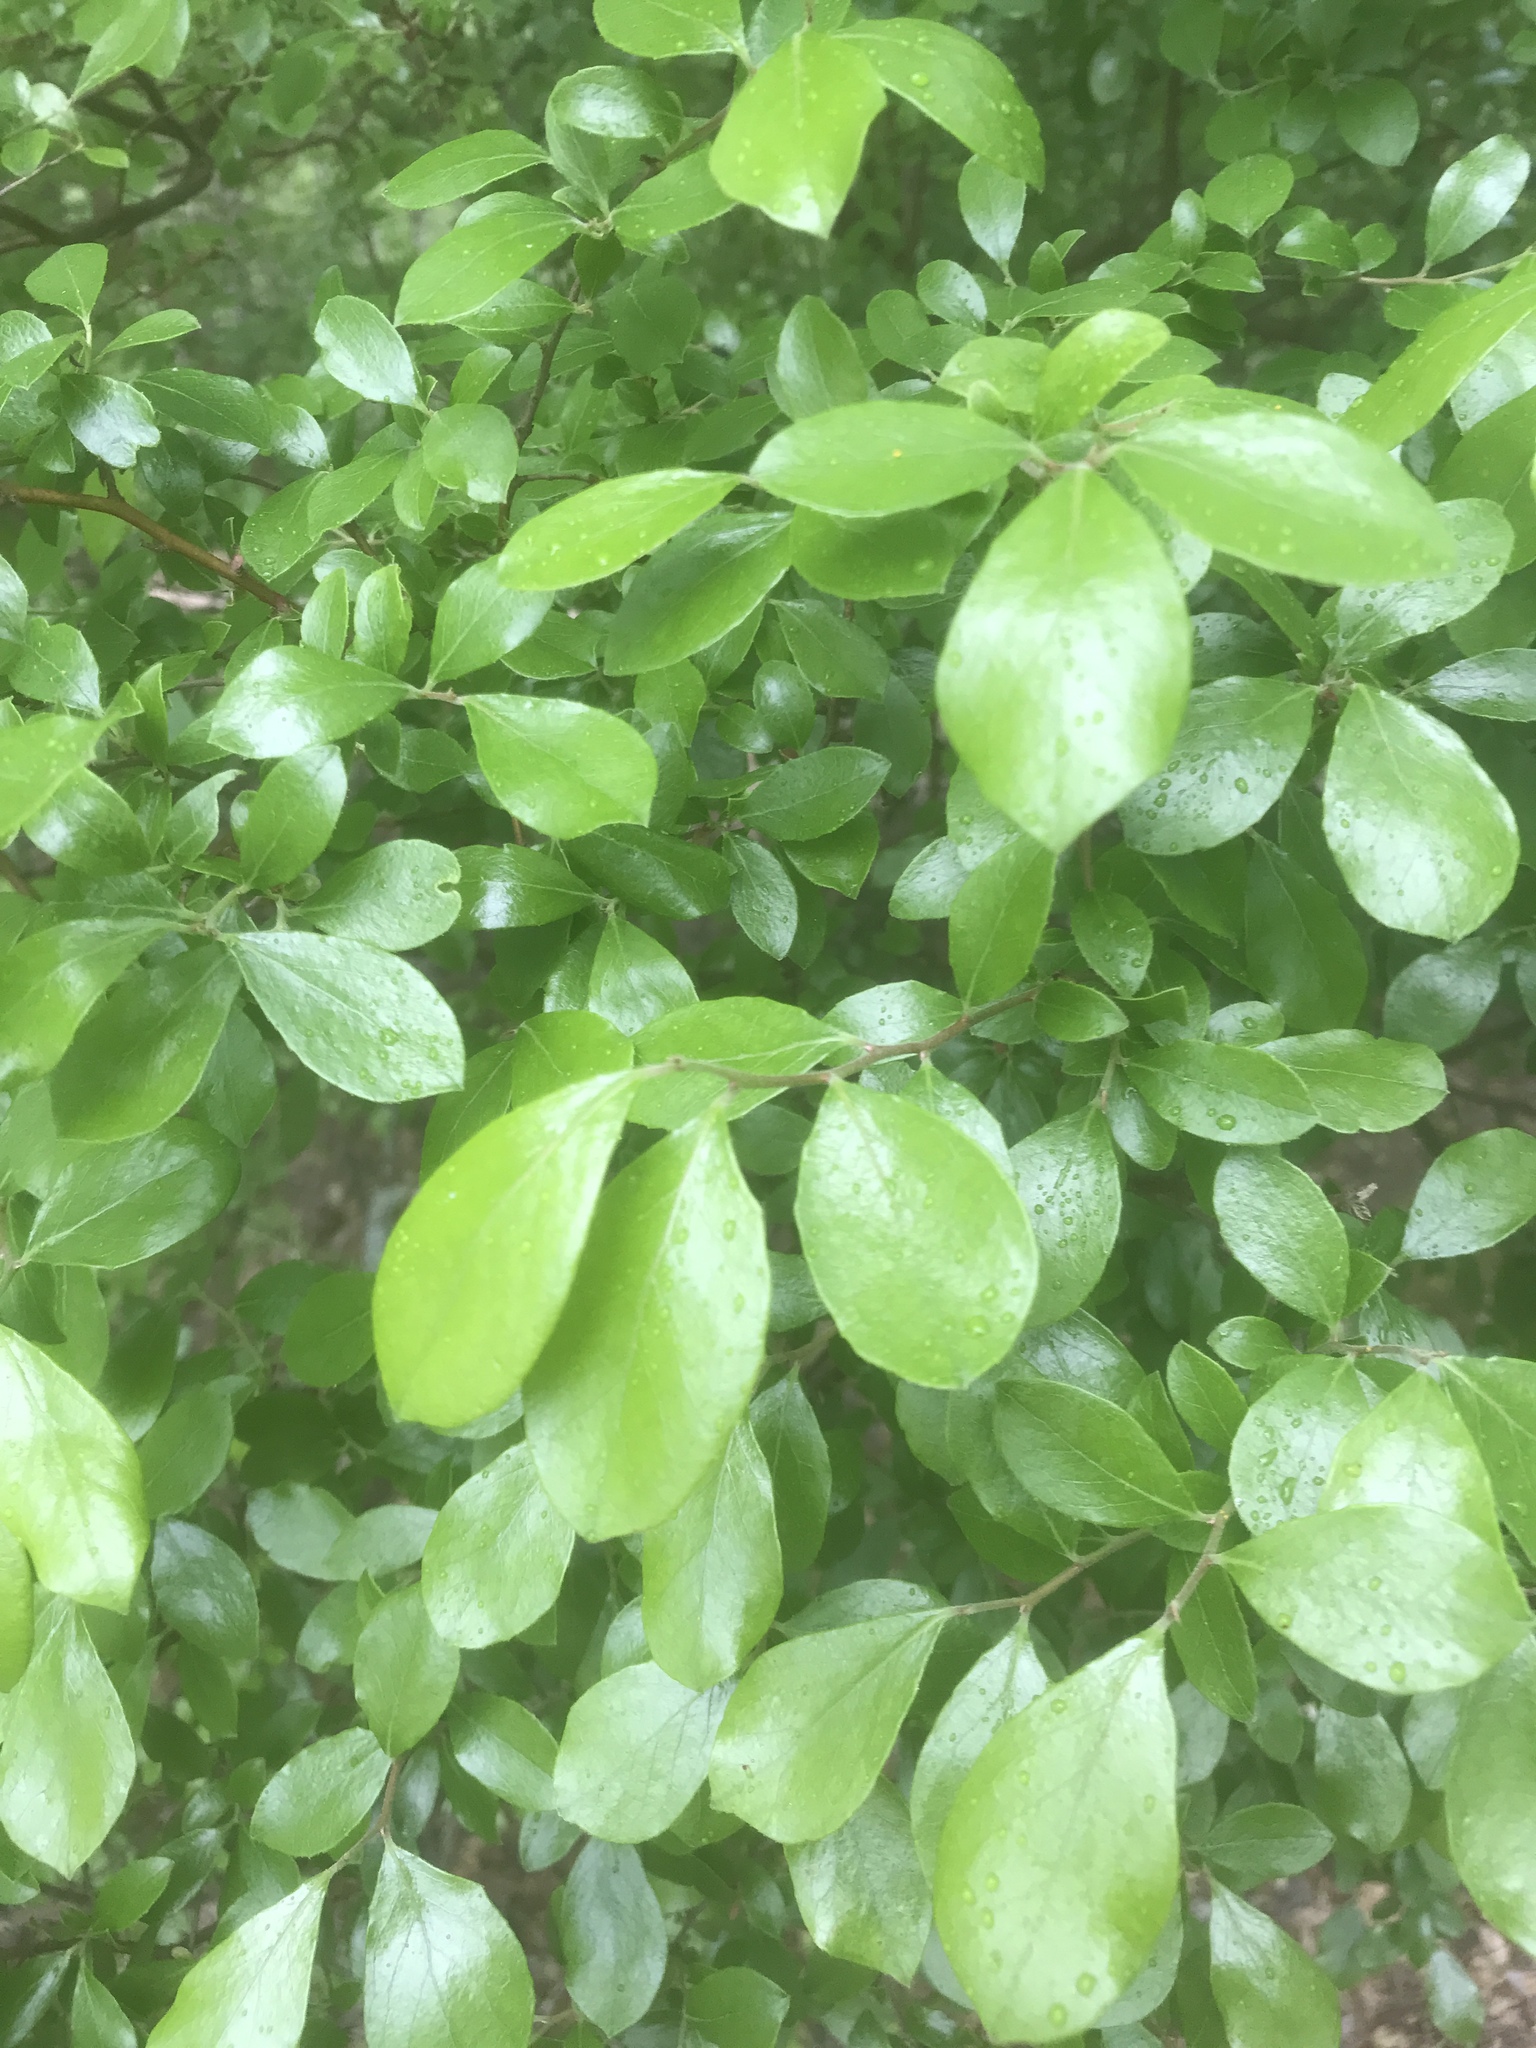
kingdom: Plantae
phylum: Tracheophyta
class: Magnoliopsida
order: Ericales
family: Ericaceae
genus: Vaccinium
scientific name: Vaccinium arboreum
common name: Farkleberry
